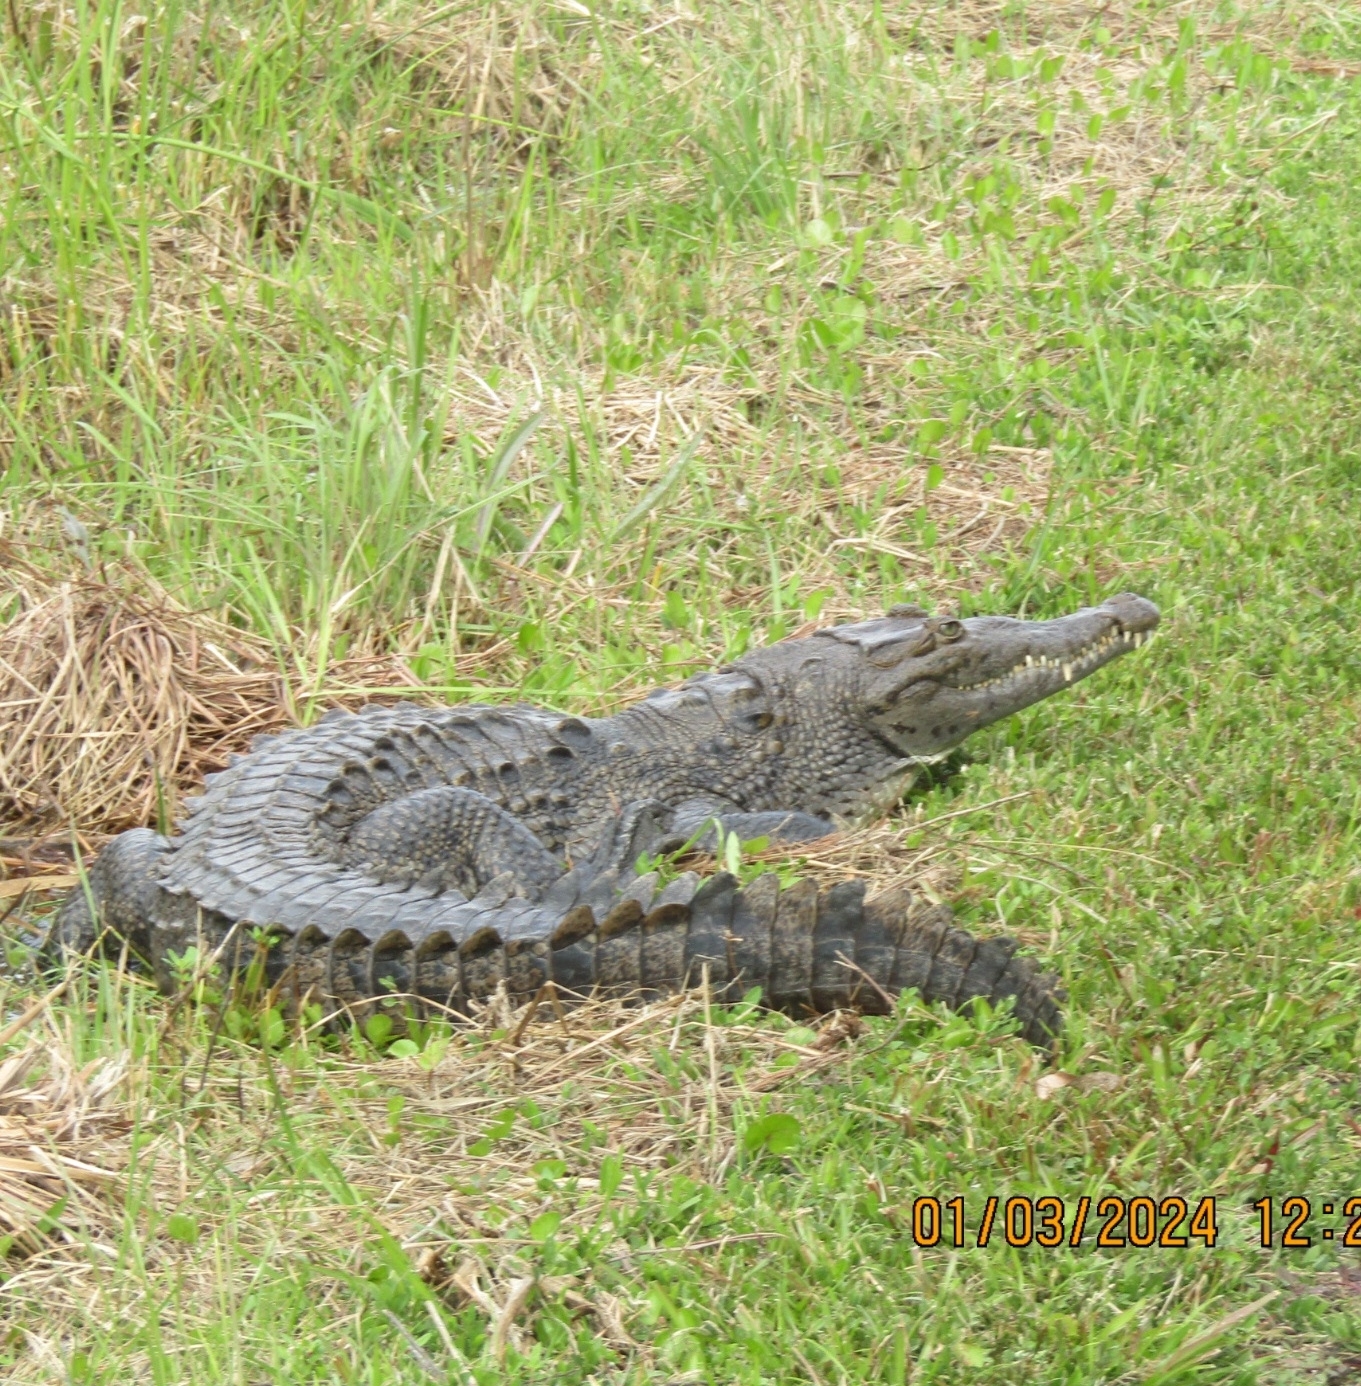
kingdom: Animalia
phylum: Chordata
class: Crocodylia
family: Crocodylidae
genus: Crocodylus
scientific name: Crocodylus acutus
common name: American crocodile
